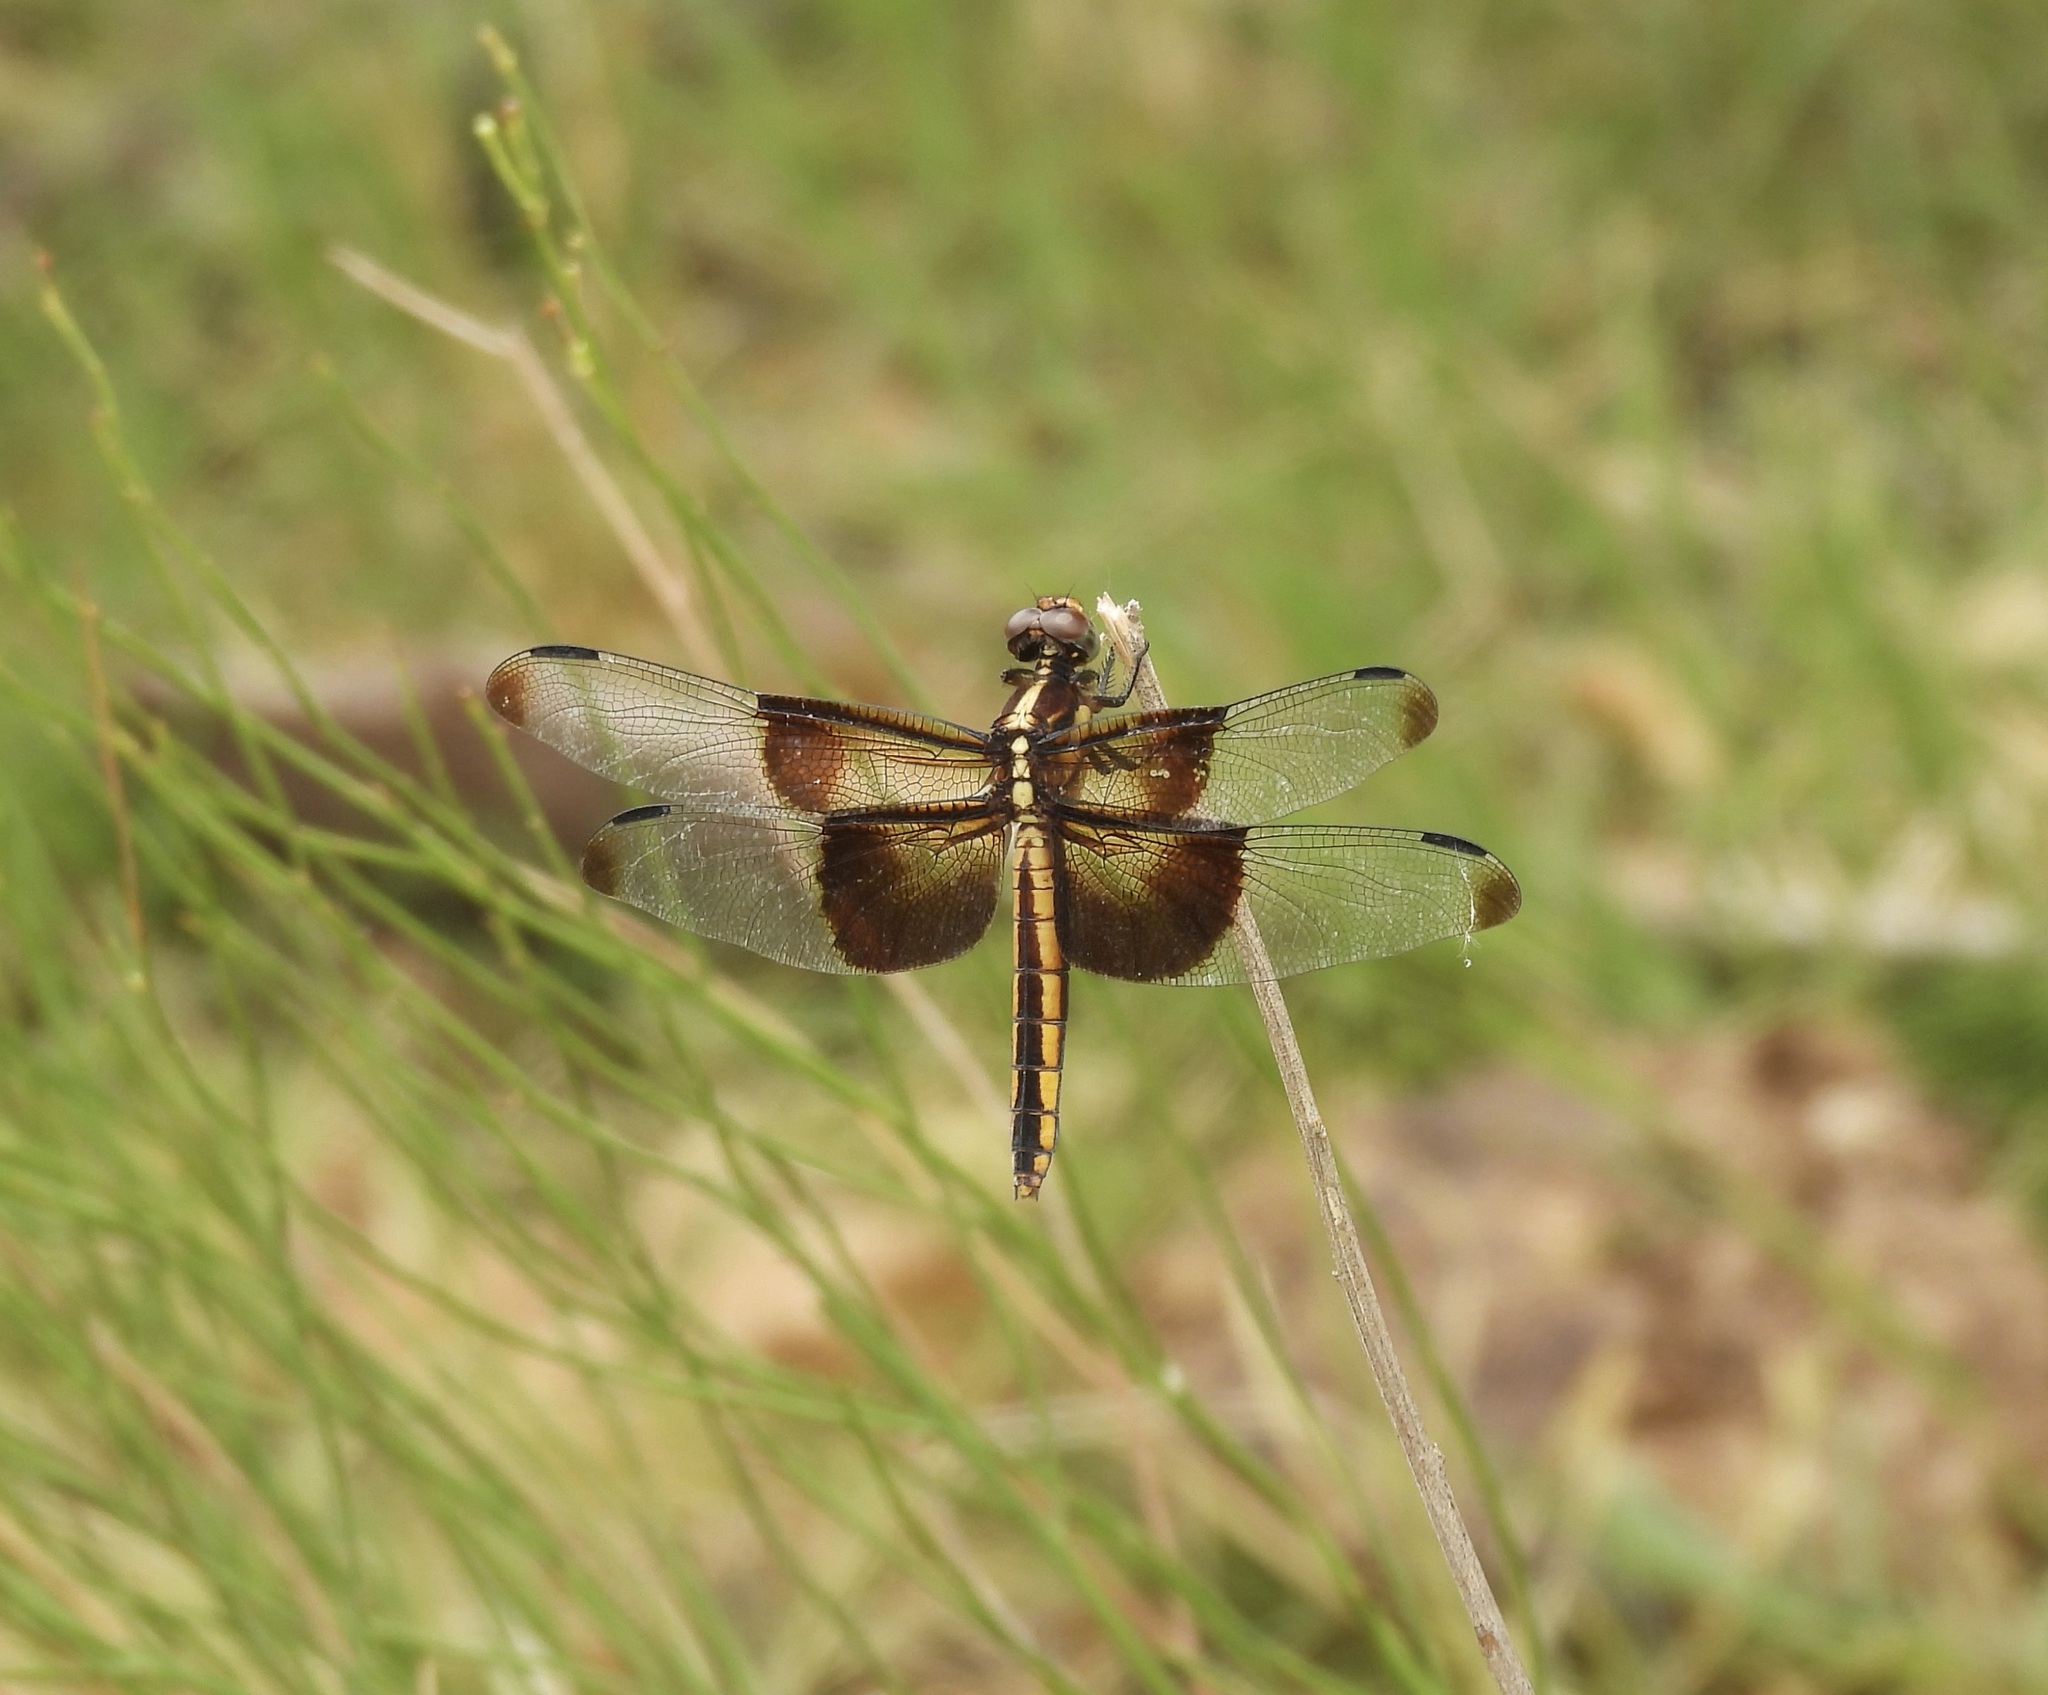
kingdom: Animalia
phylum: Arthropoda
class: Insecta
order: Odonata
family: Libellulidae
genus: Libellula
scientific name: Libellula luctuosa
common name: Widow skimmer
